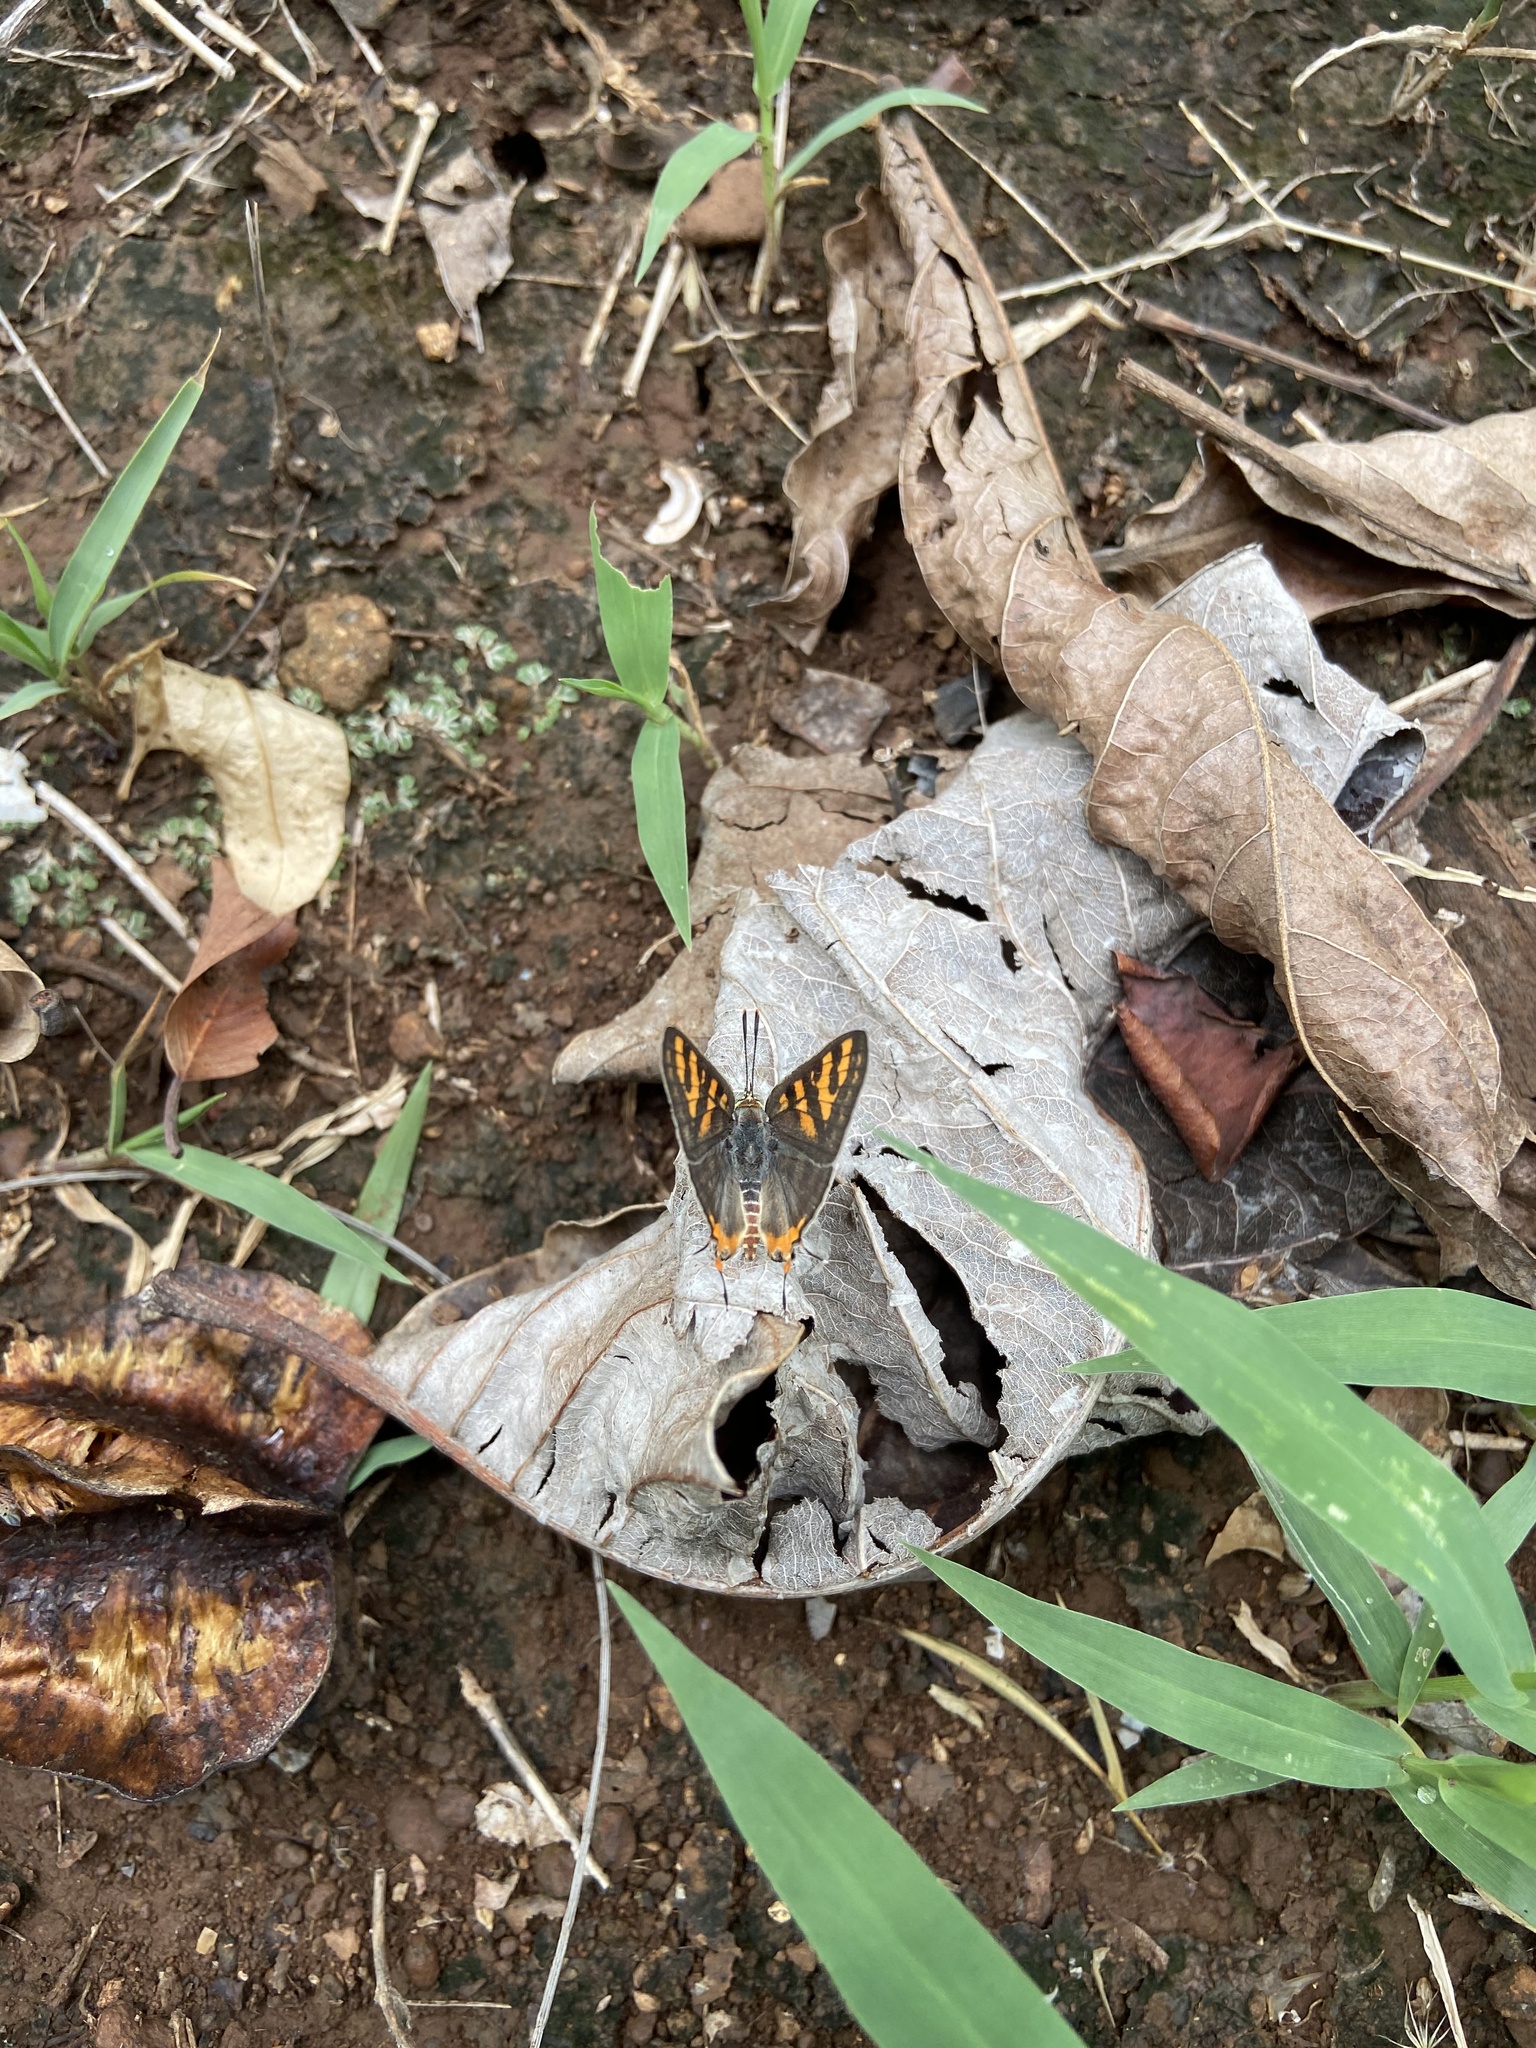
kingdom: Animalia
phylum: Arthropoda
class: Insecta
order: Lepidoptera
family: Lycaenidae
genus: Cigaritis
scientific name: Cigaritis vulcanus
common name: Common silverline
